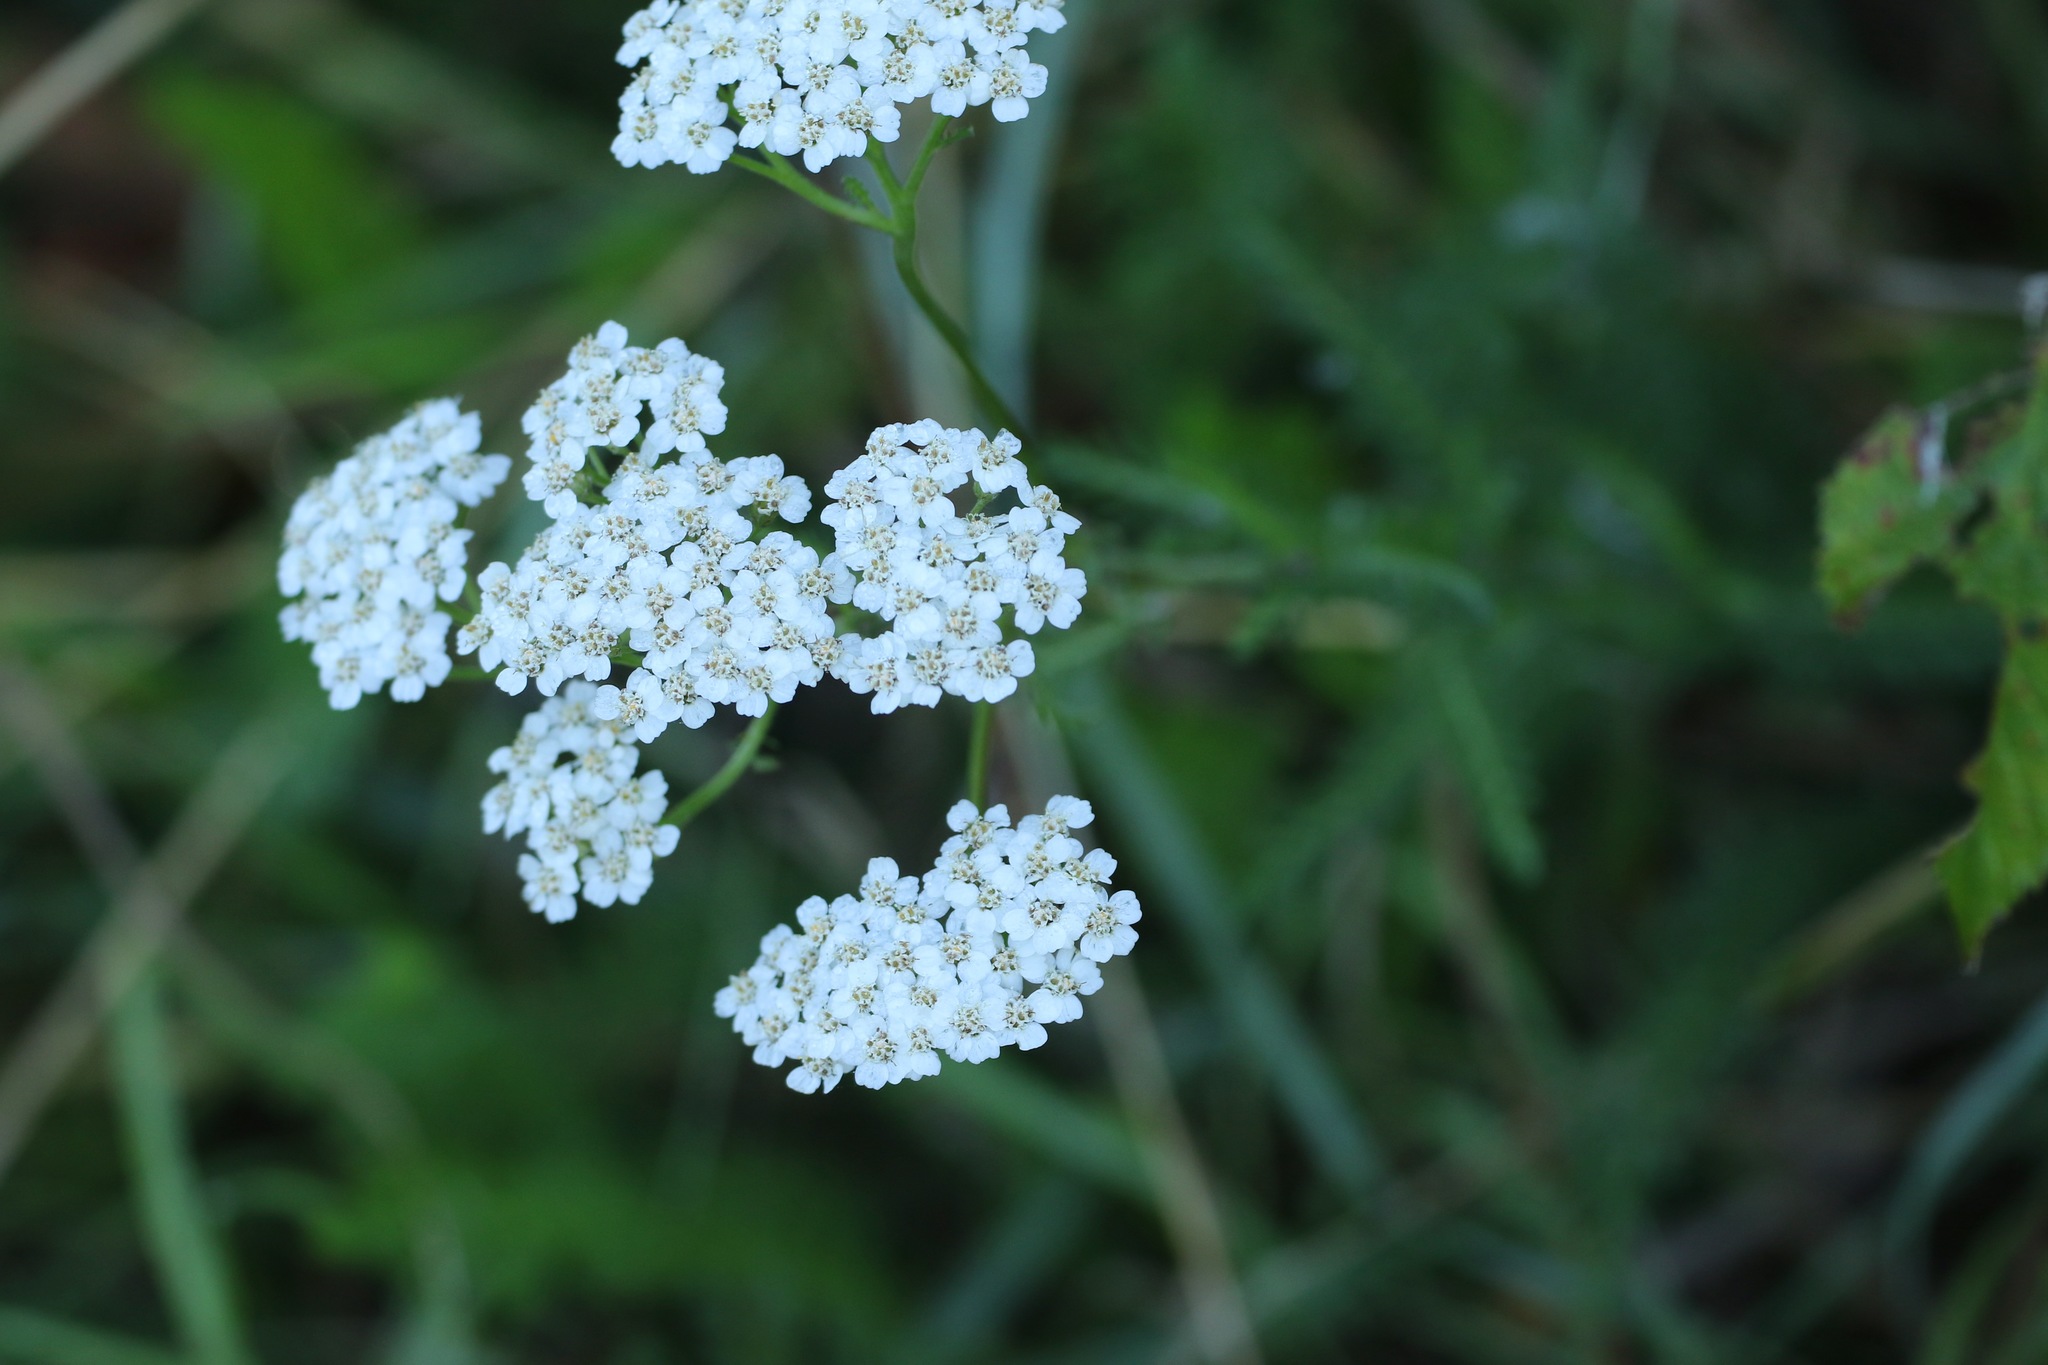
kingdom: Plantae
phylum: Tracheophyta
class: Magnoliopsida
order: Asterales
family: Asteraceae
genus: Achillea
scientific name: Achillea millefolium
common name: Yarrow
